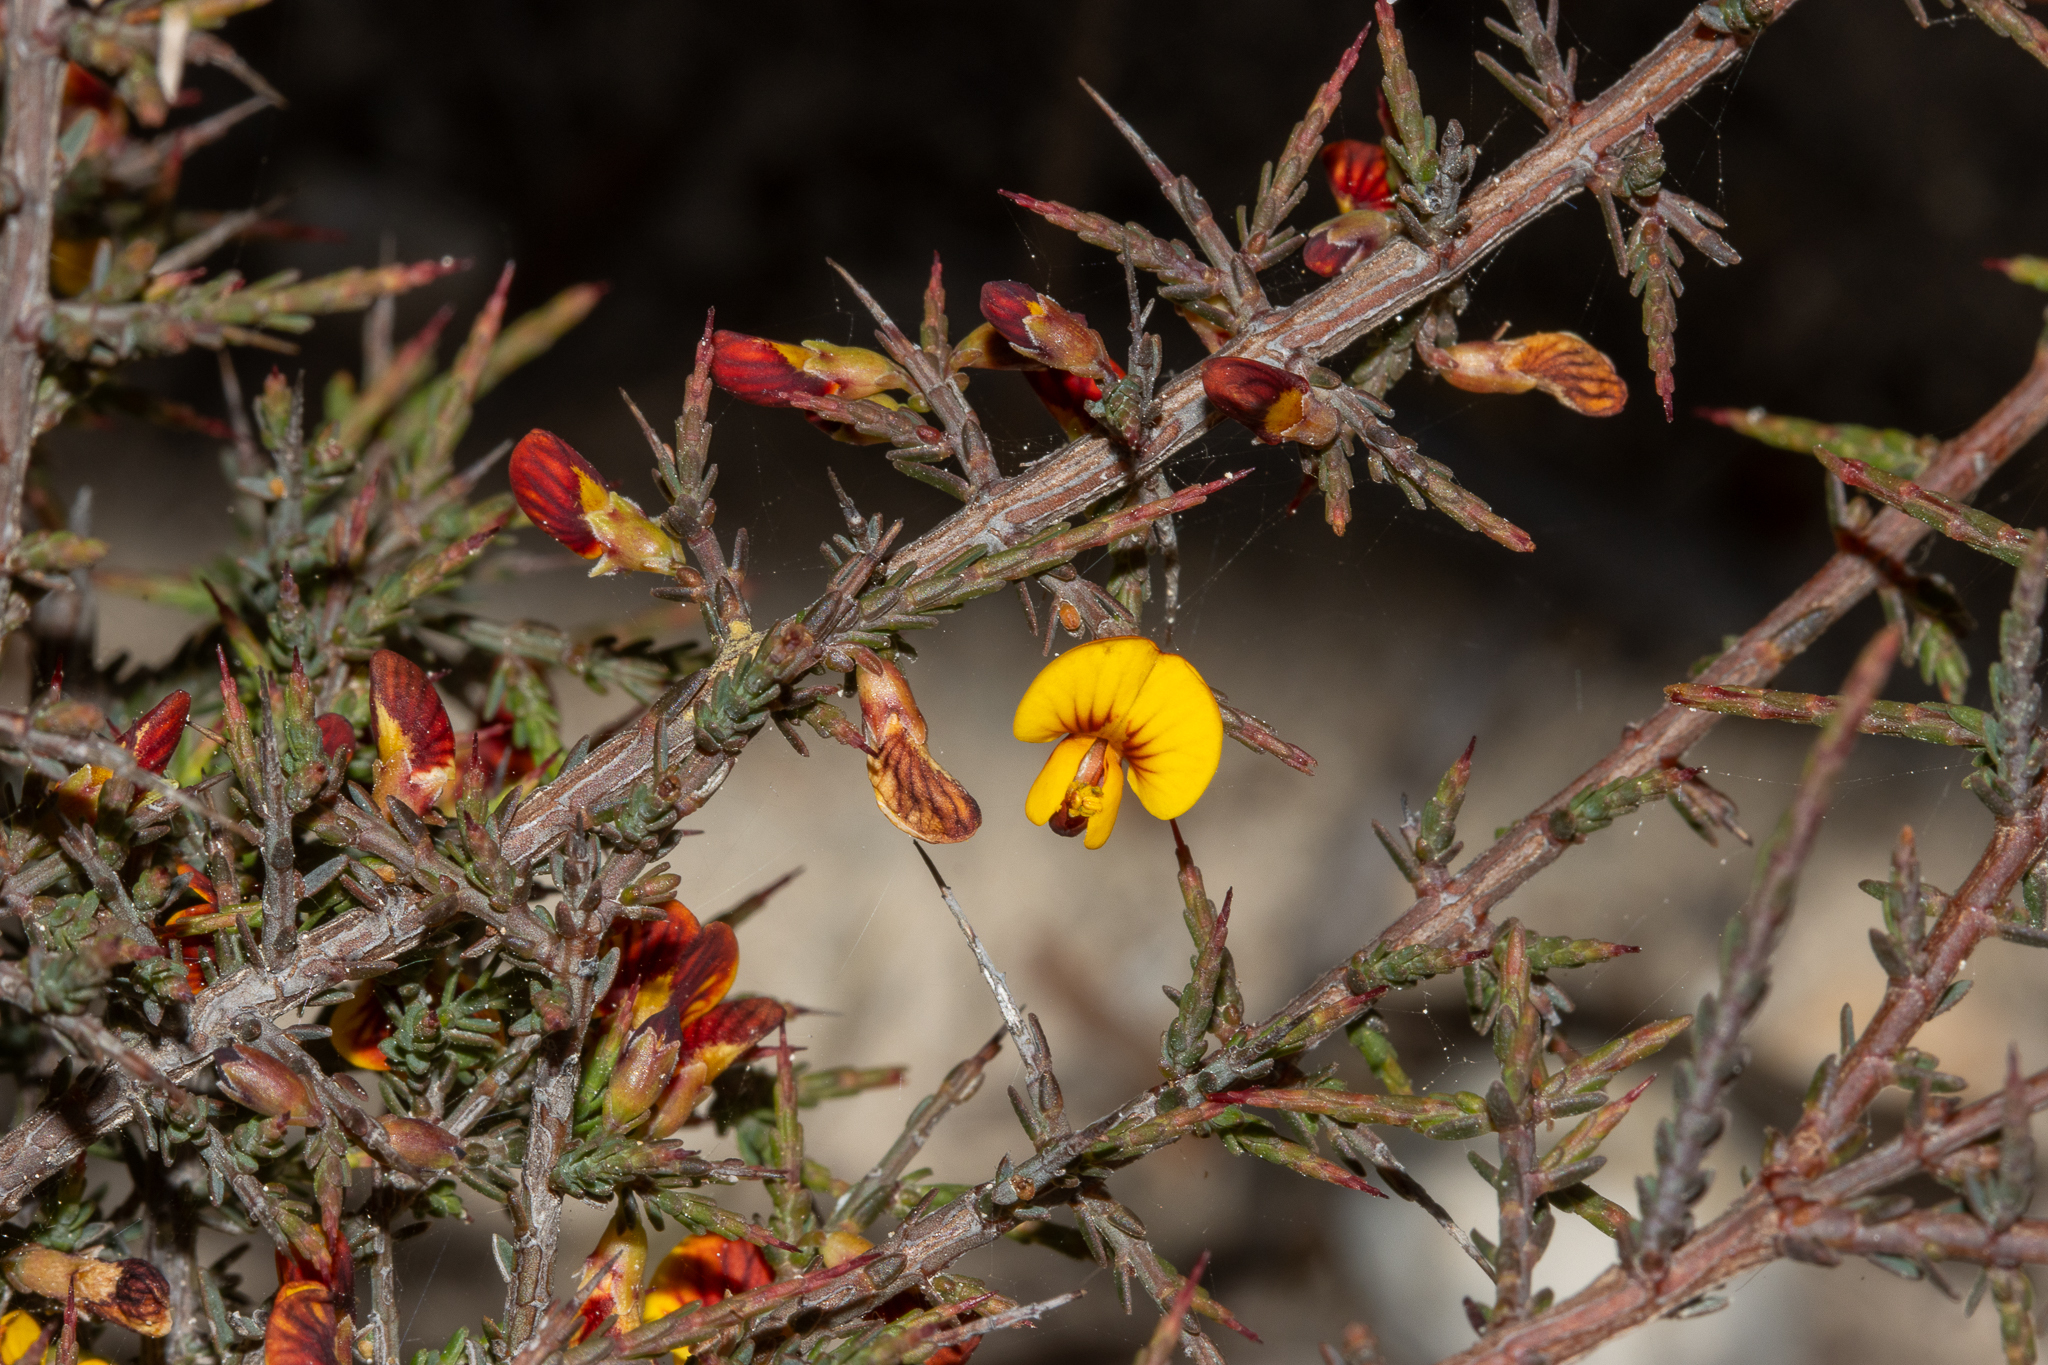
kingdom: Plantae
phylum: Tracheophyta
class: Magnoliopsida
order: Fabales
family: Fabaceae
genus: Eutaxia
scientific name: Eutaxia microphylla
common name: Mallee bush-pea
